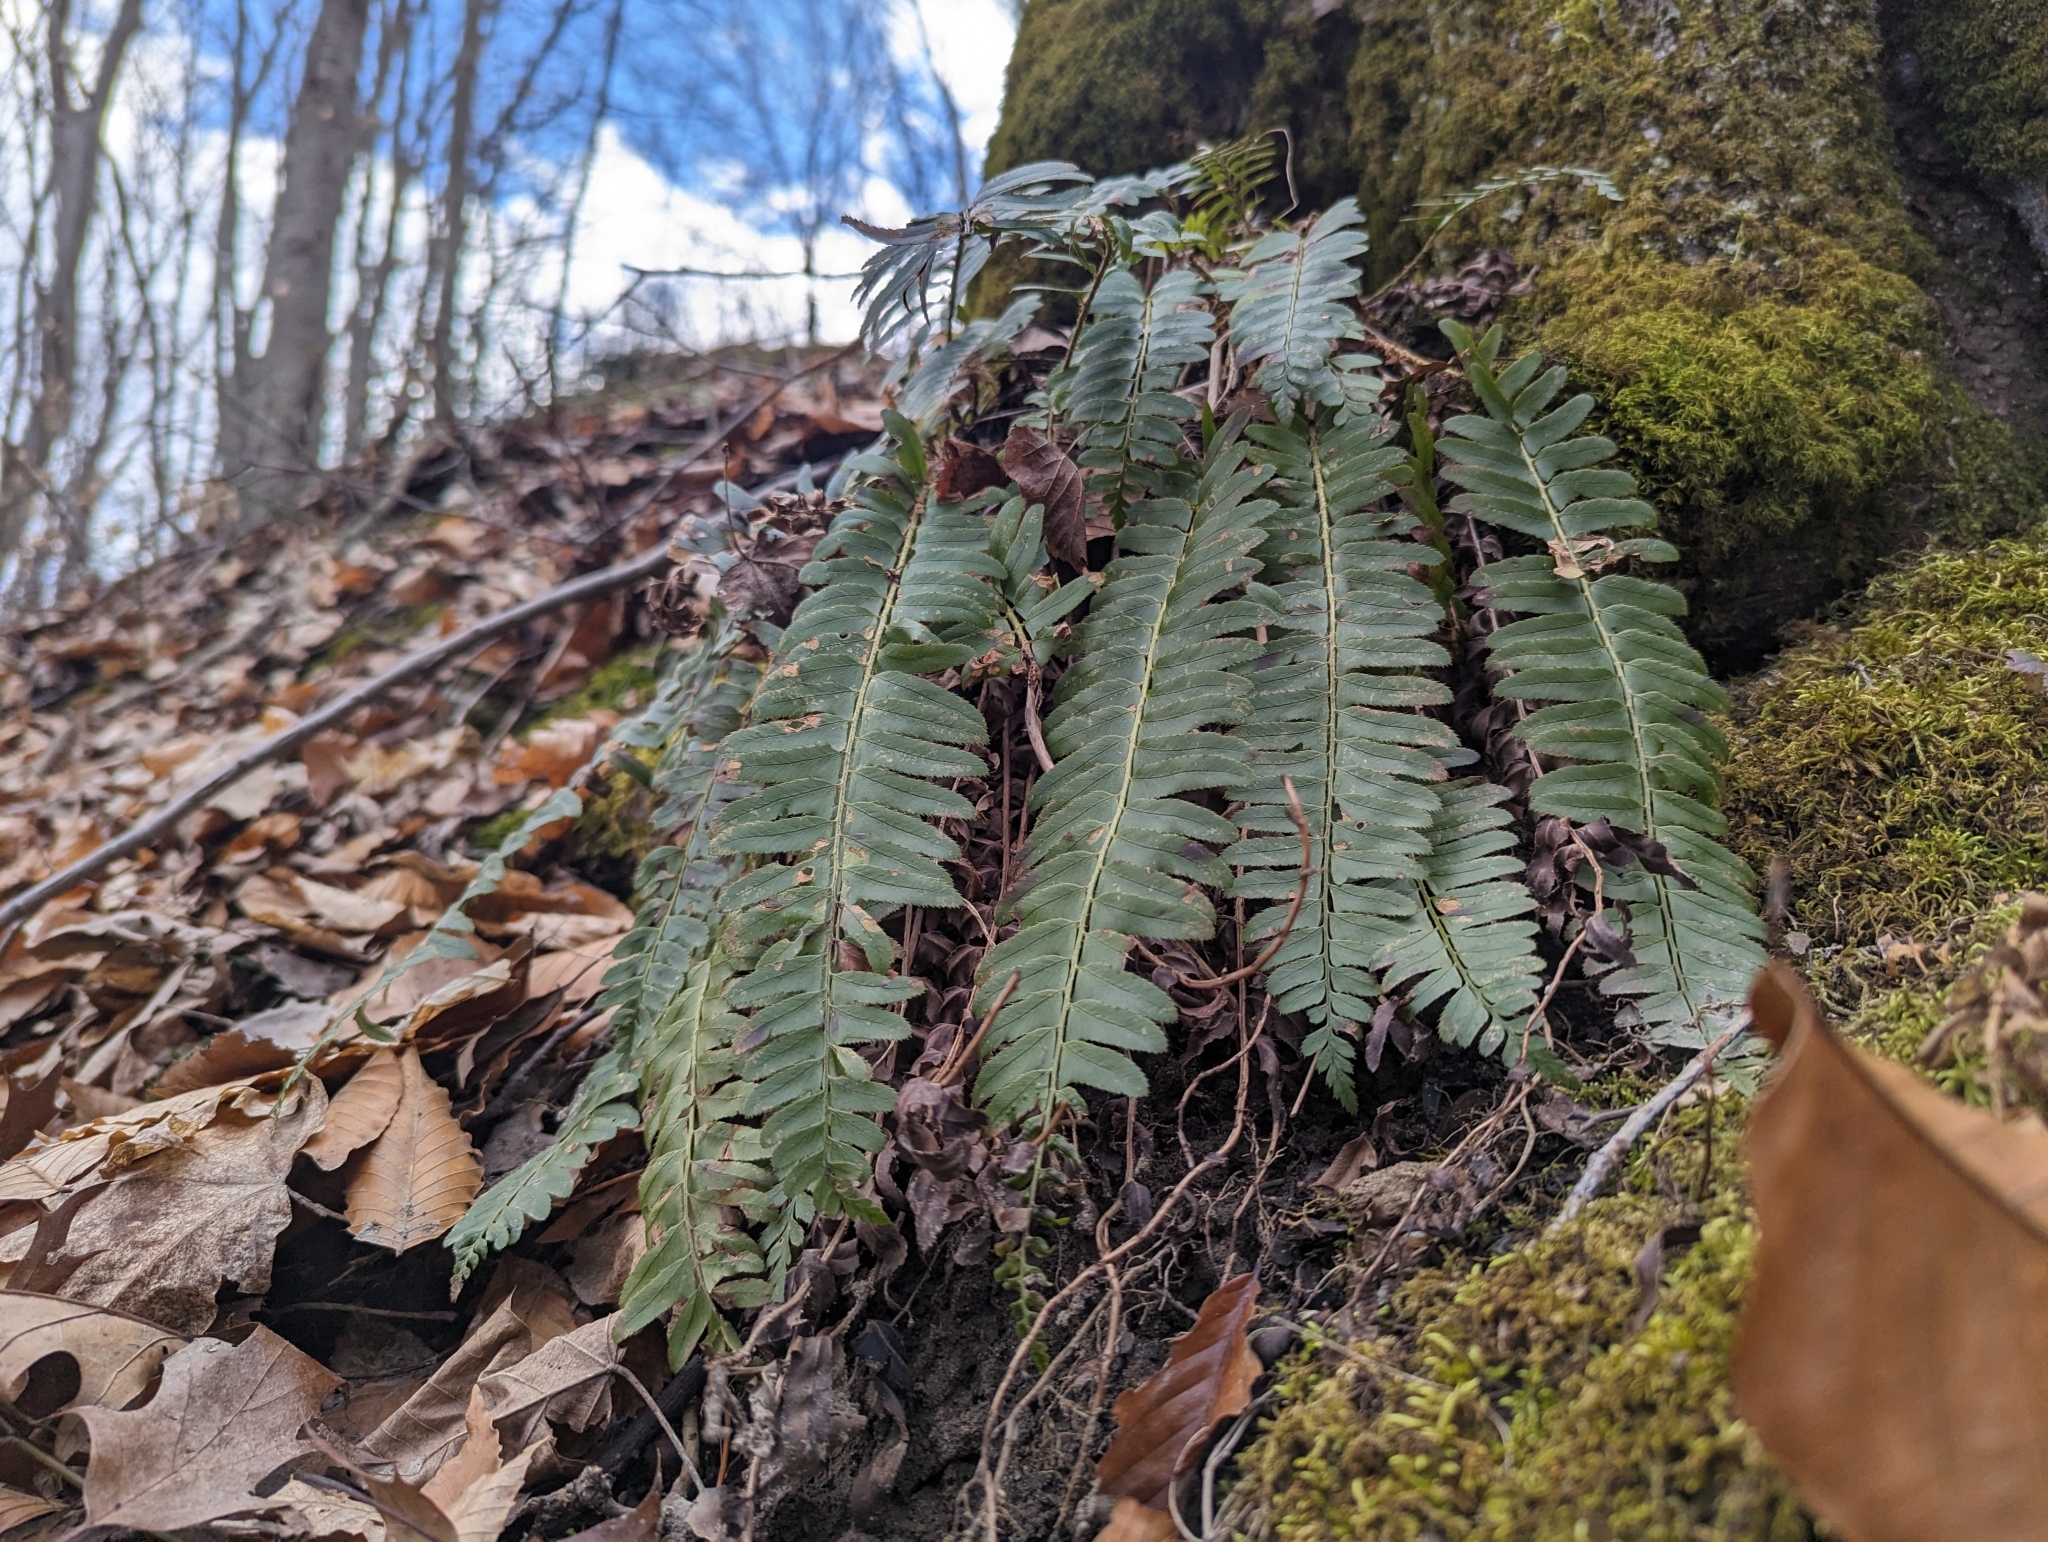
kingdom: Plantae
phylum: Tracheophyta
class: Polypodiopsida
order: Polypodiales
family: Dryopteridaceae
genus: Polystichum
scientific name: Polystichum acrostichoides
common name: Christmas fern
